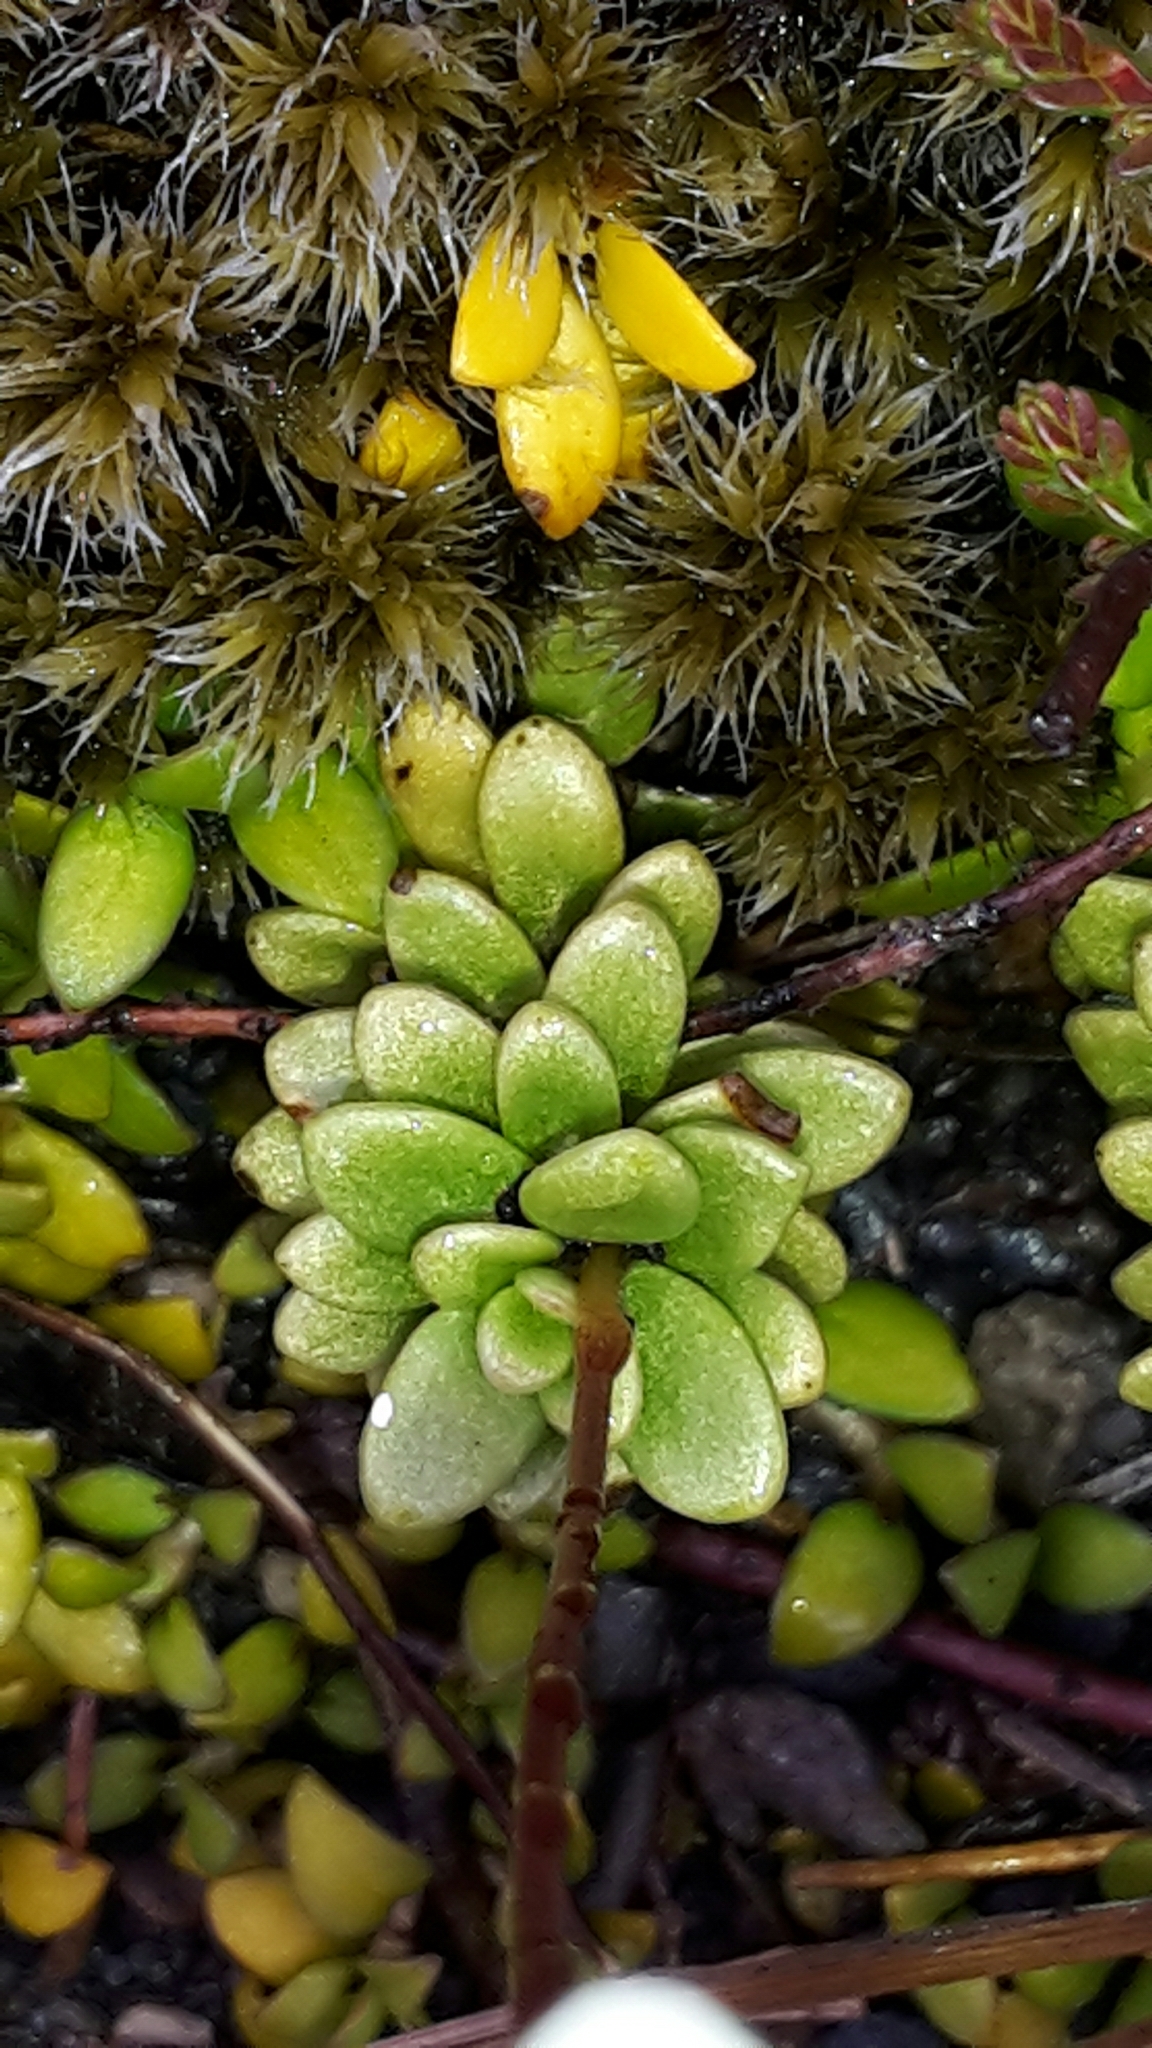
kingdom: Plantae
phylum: Tracheophyta
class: Magnoliopsida
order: Asterales
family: Stylidiaceae
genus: Forstera
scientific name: Forstera tenella
